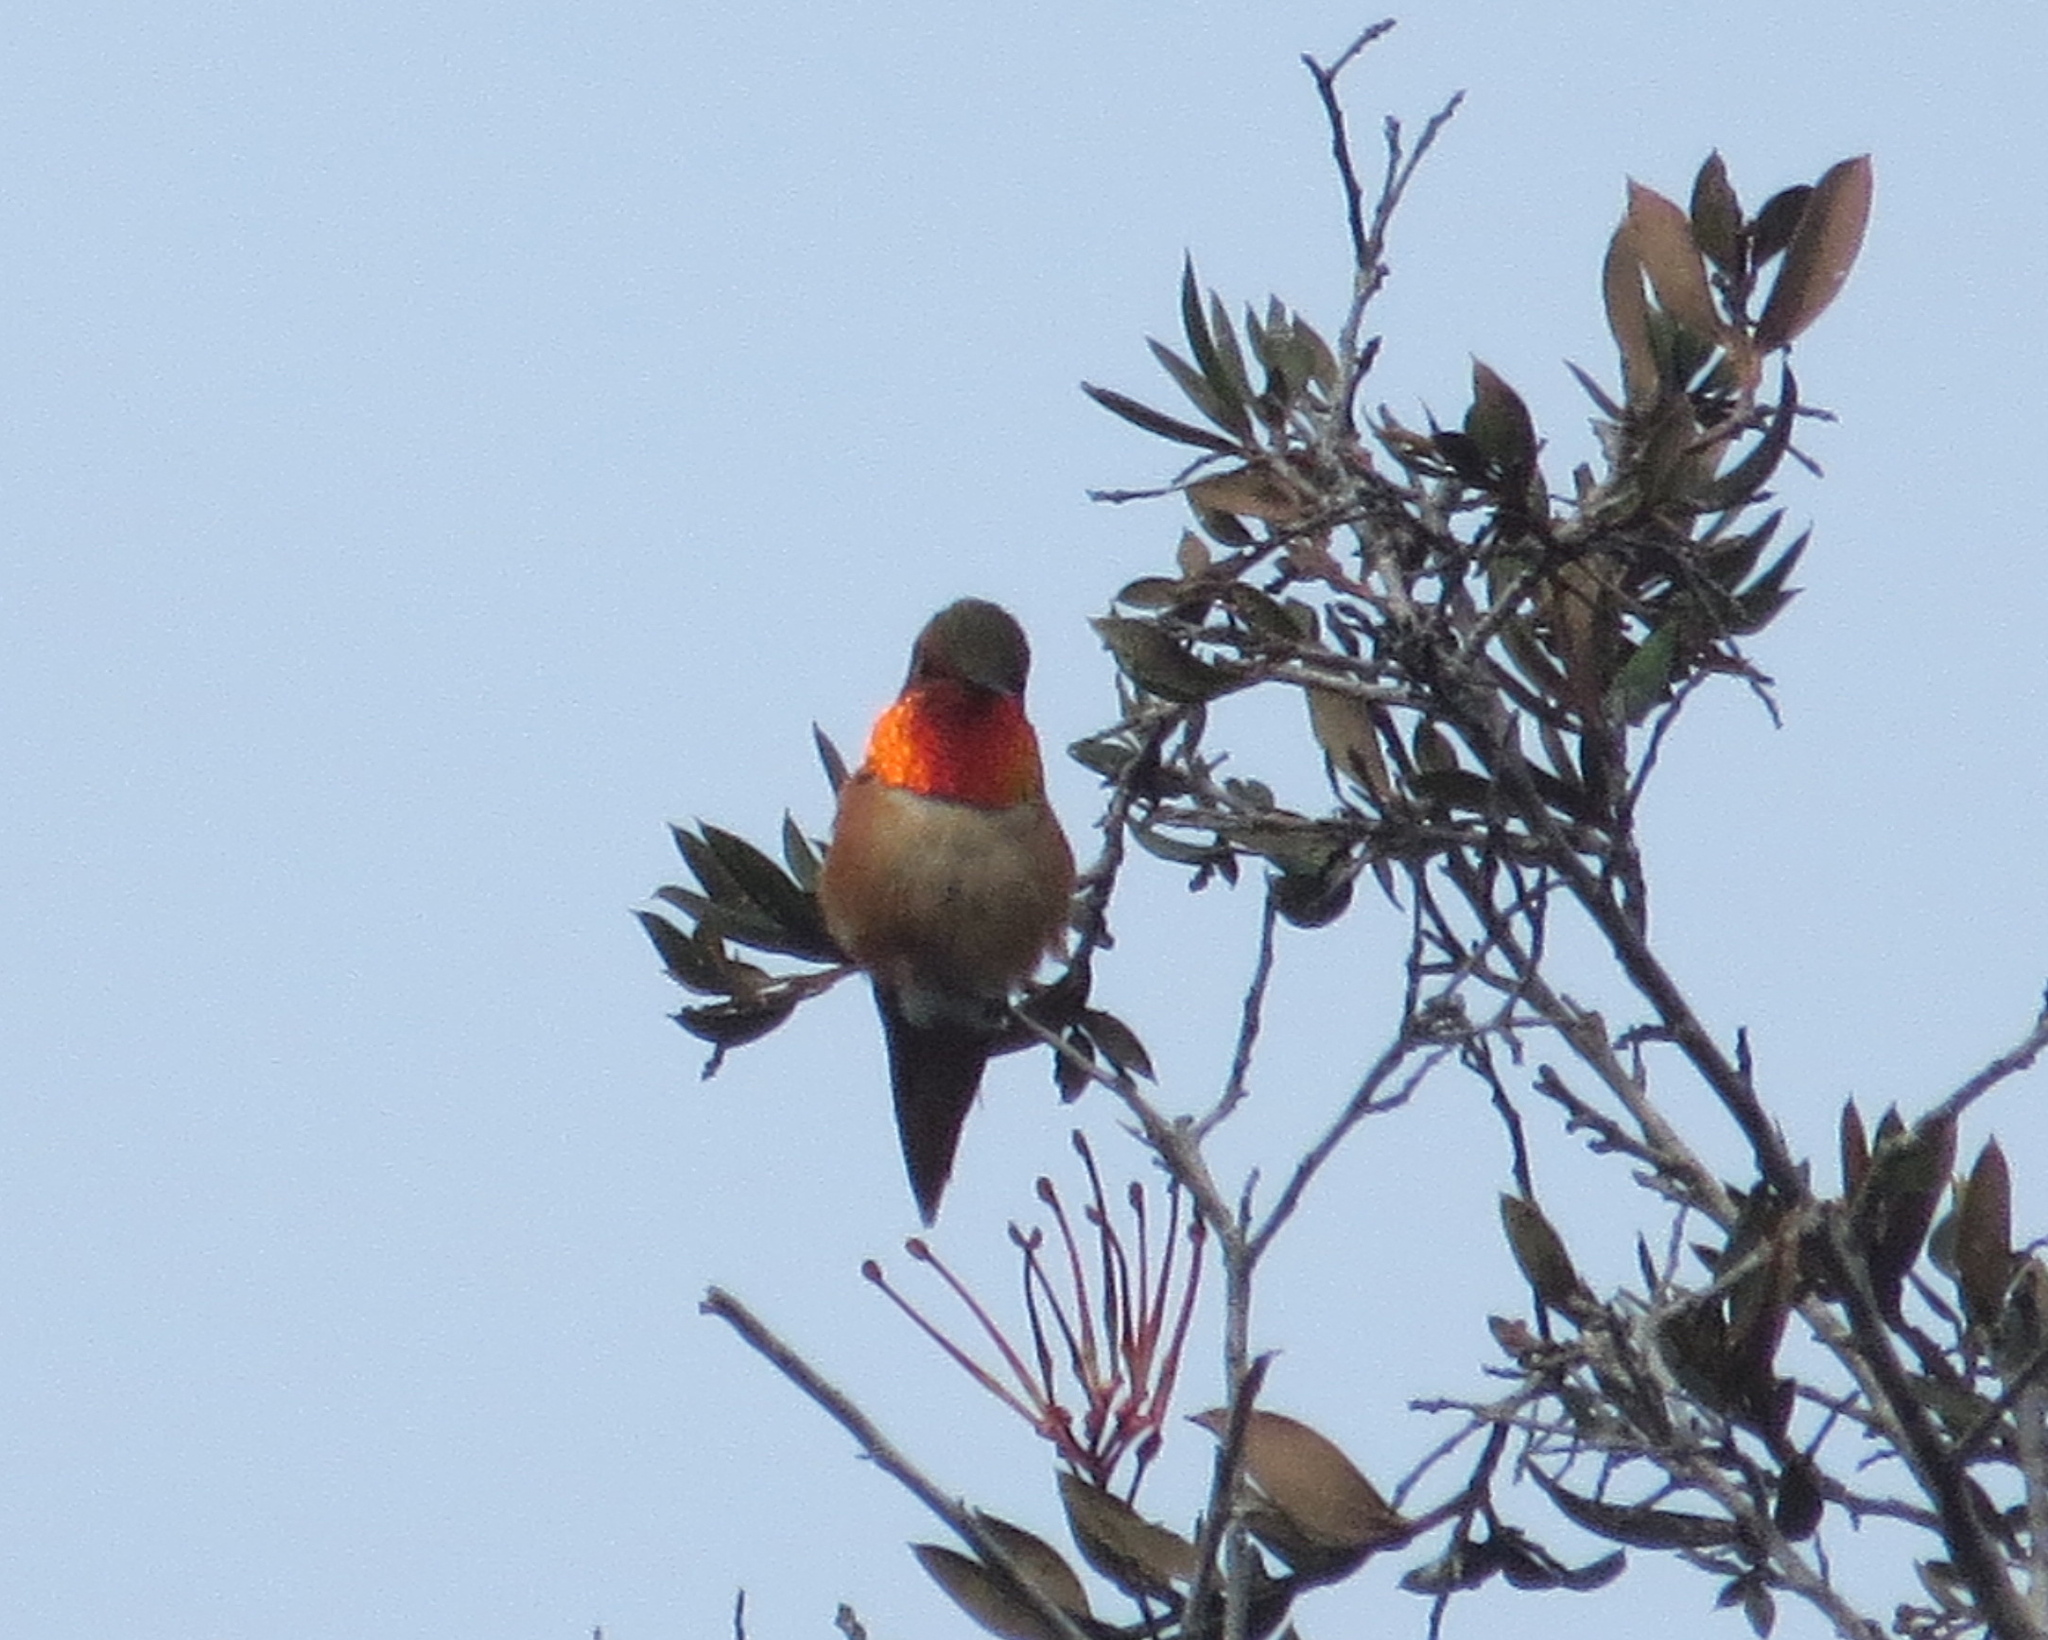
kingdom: Animalia
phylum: Chordata
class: Aves
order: Apodiformes
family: Trochilidae
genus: Selasphorus
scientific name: Selasphorus
